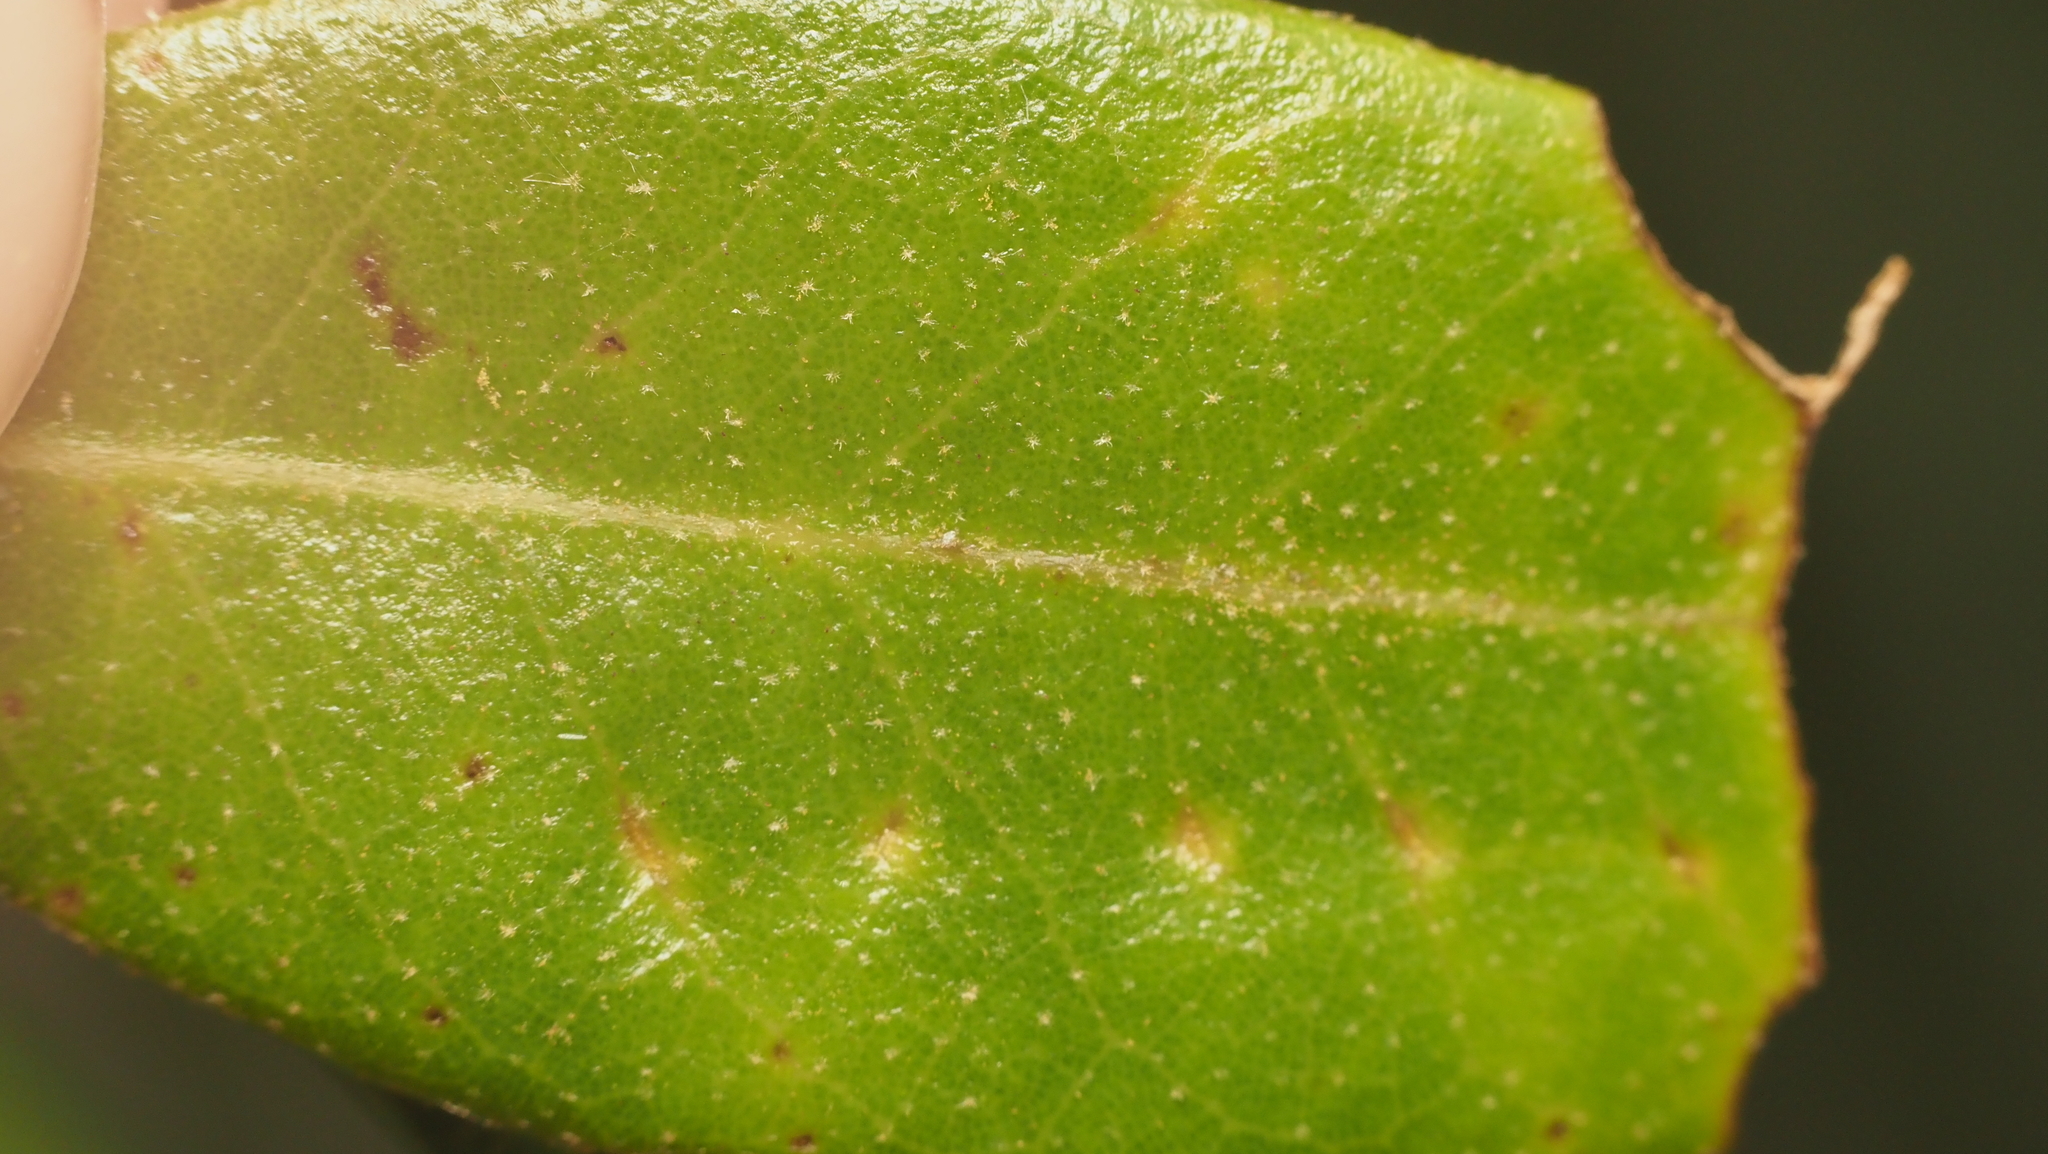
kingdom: Animalia
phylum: Arthropoda
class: Insecta
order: Hymenoptera
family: Cynipidae
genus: Belonocnema
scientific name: Belonocnema kinseyi
